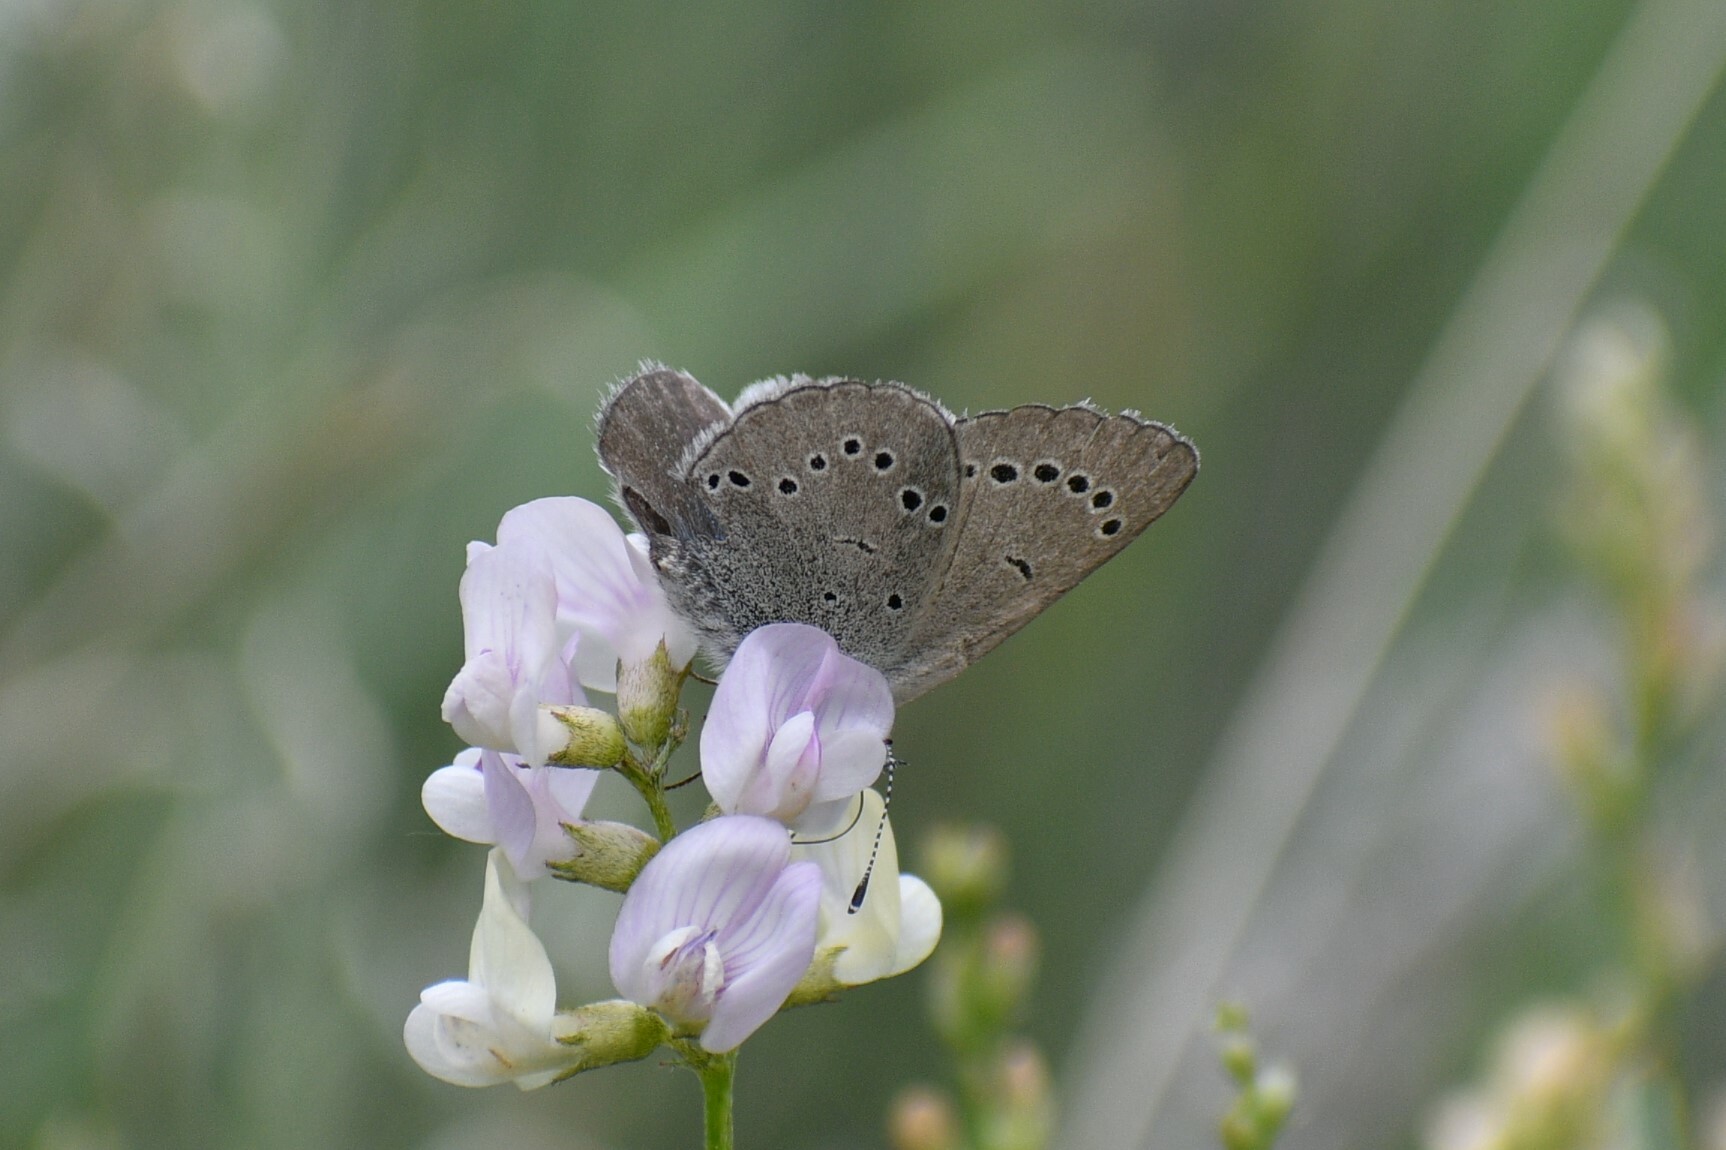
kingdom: Animalia
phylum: Arthropoda
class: Insecta
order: Lepidoptera
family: Lycaenidae
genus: Glaucopsyche
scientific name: Glaucopsyche lygdamus
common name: Silvery blue
